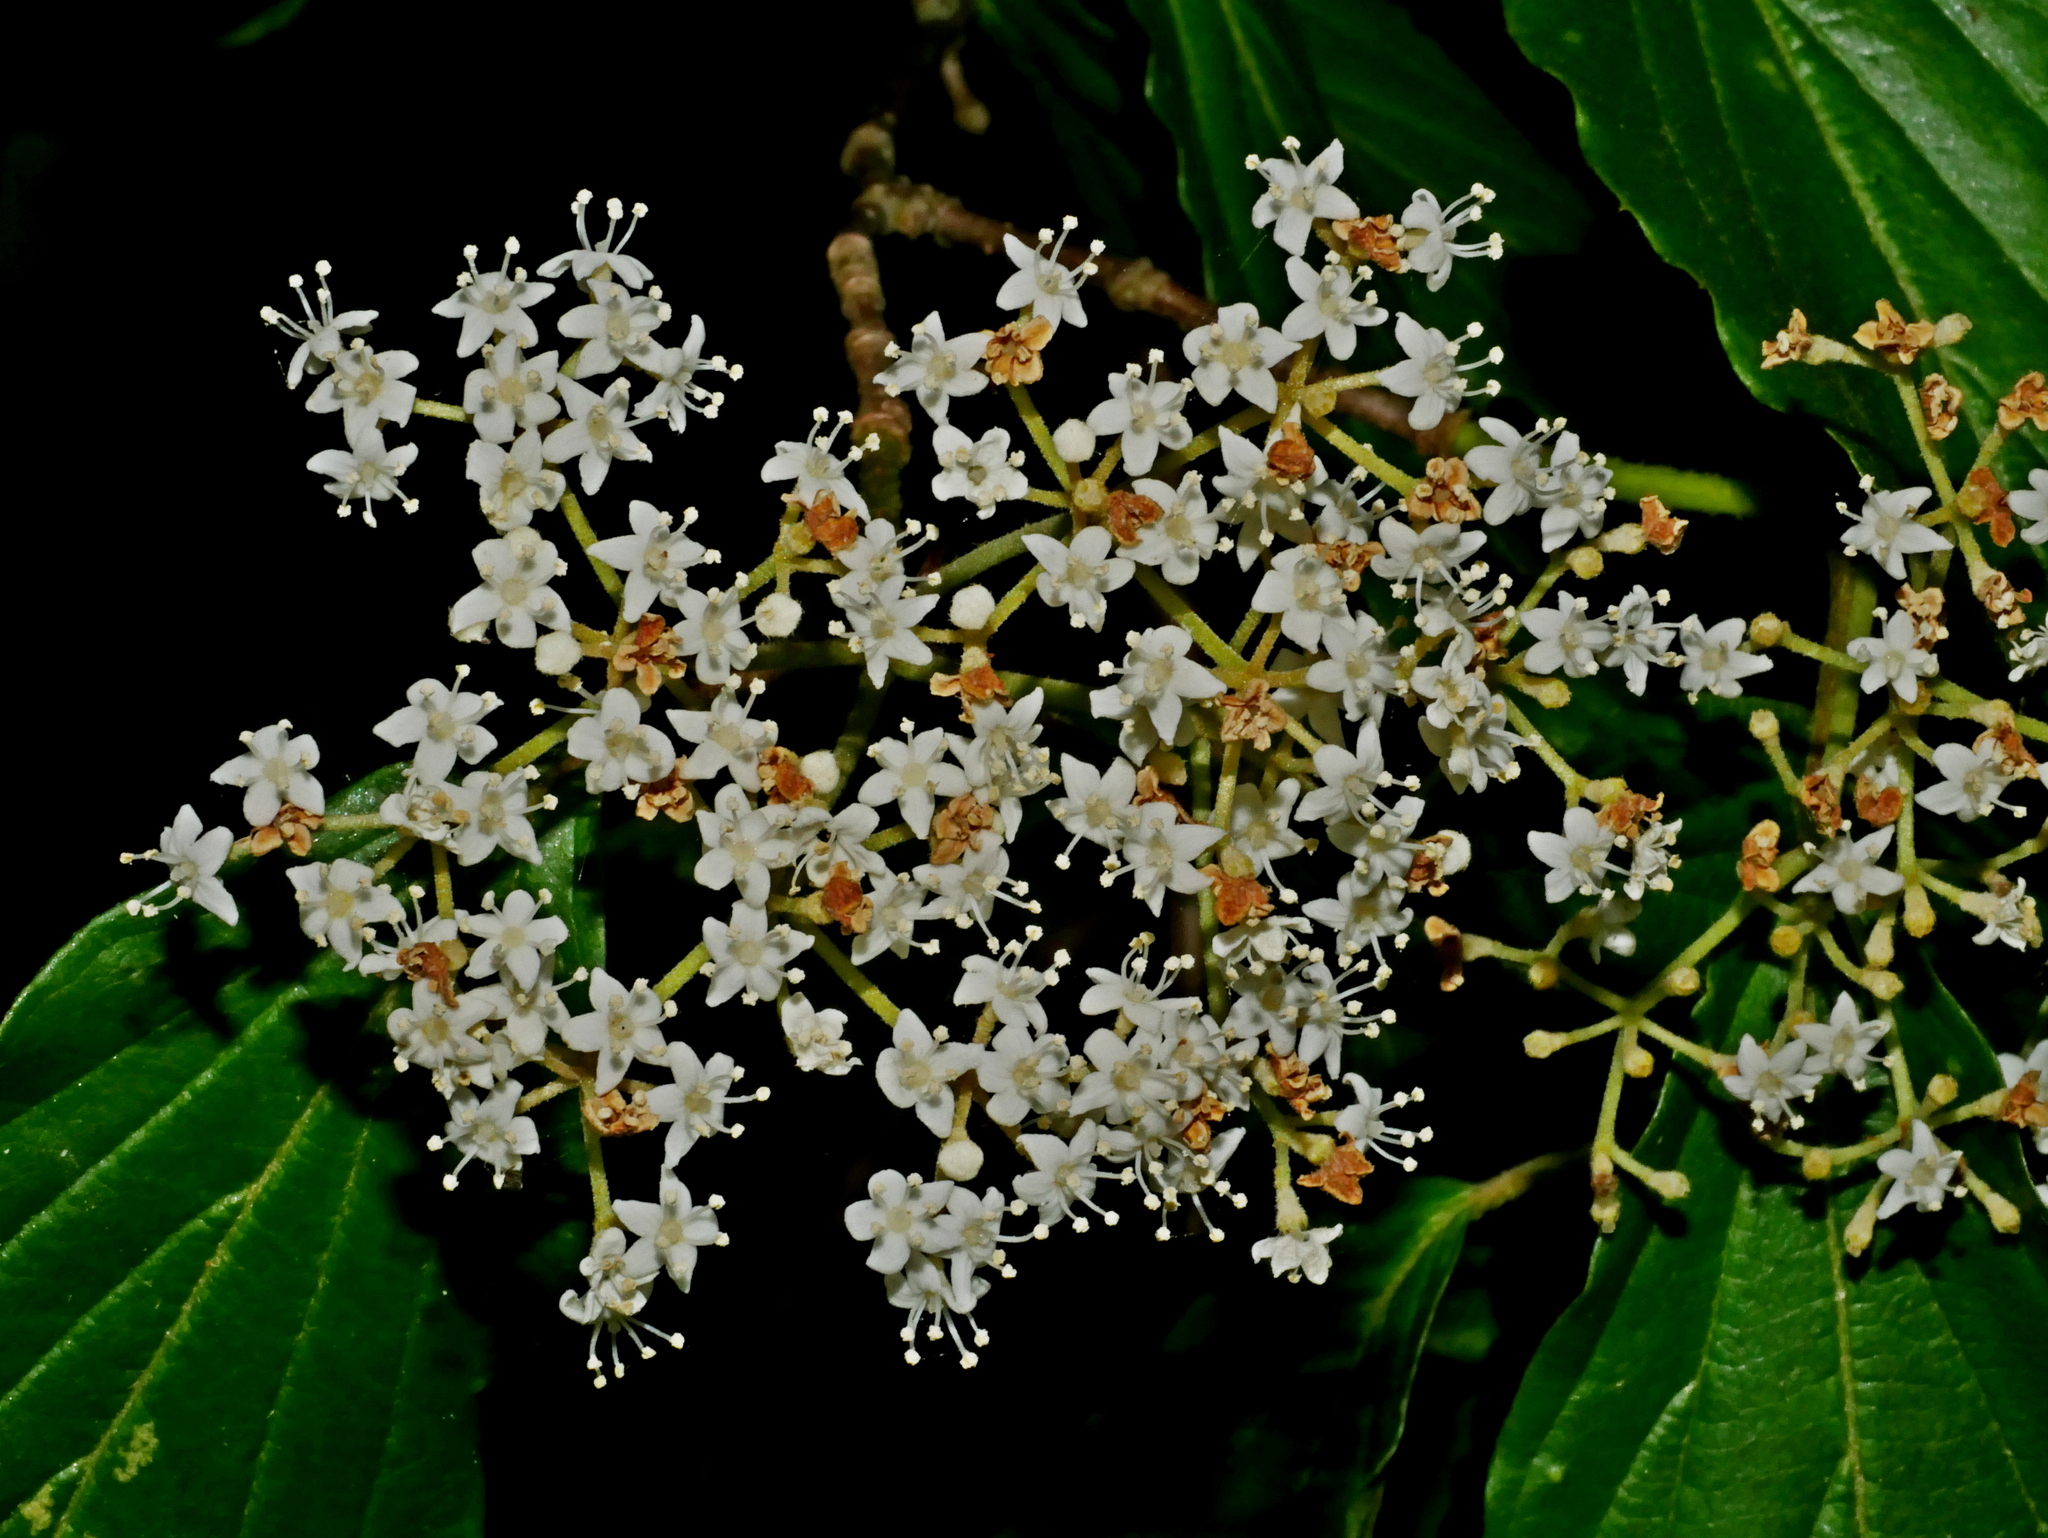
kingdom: Plantae
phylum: Tracheophyta
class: Magnoliopsida
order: Dipsacales
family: Viburnaceae
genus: Viburnum
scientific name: Viburnum luzonicum
